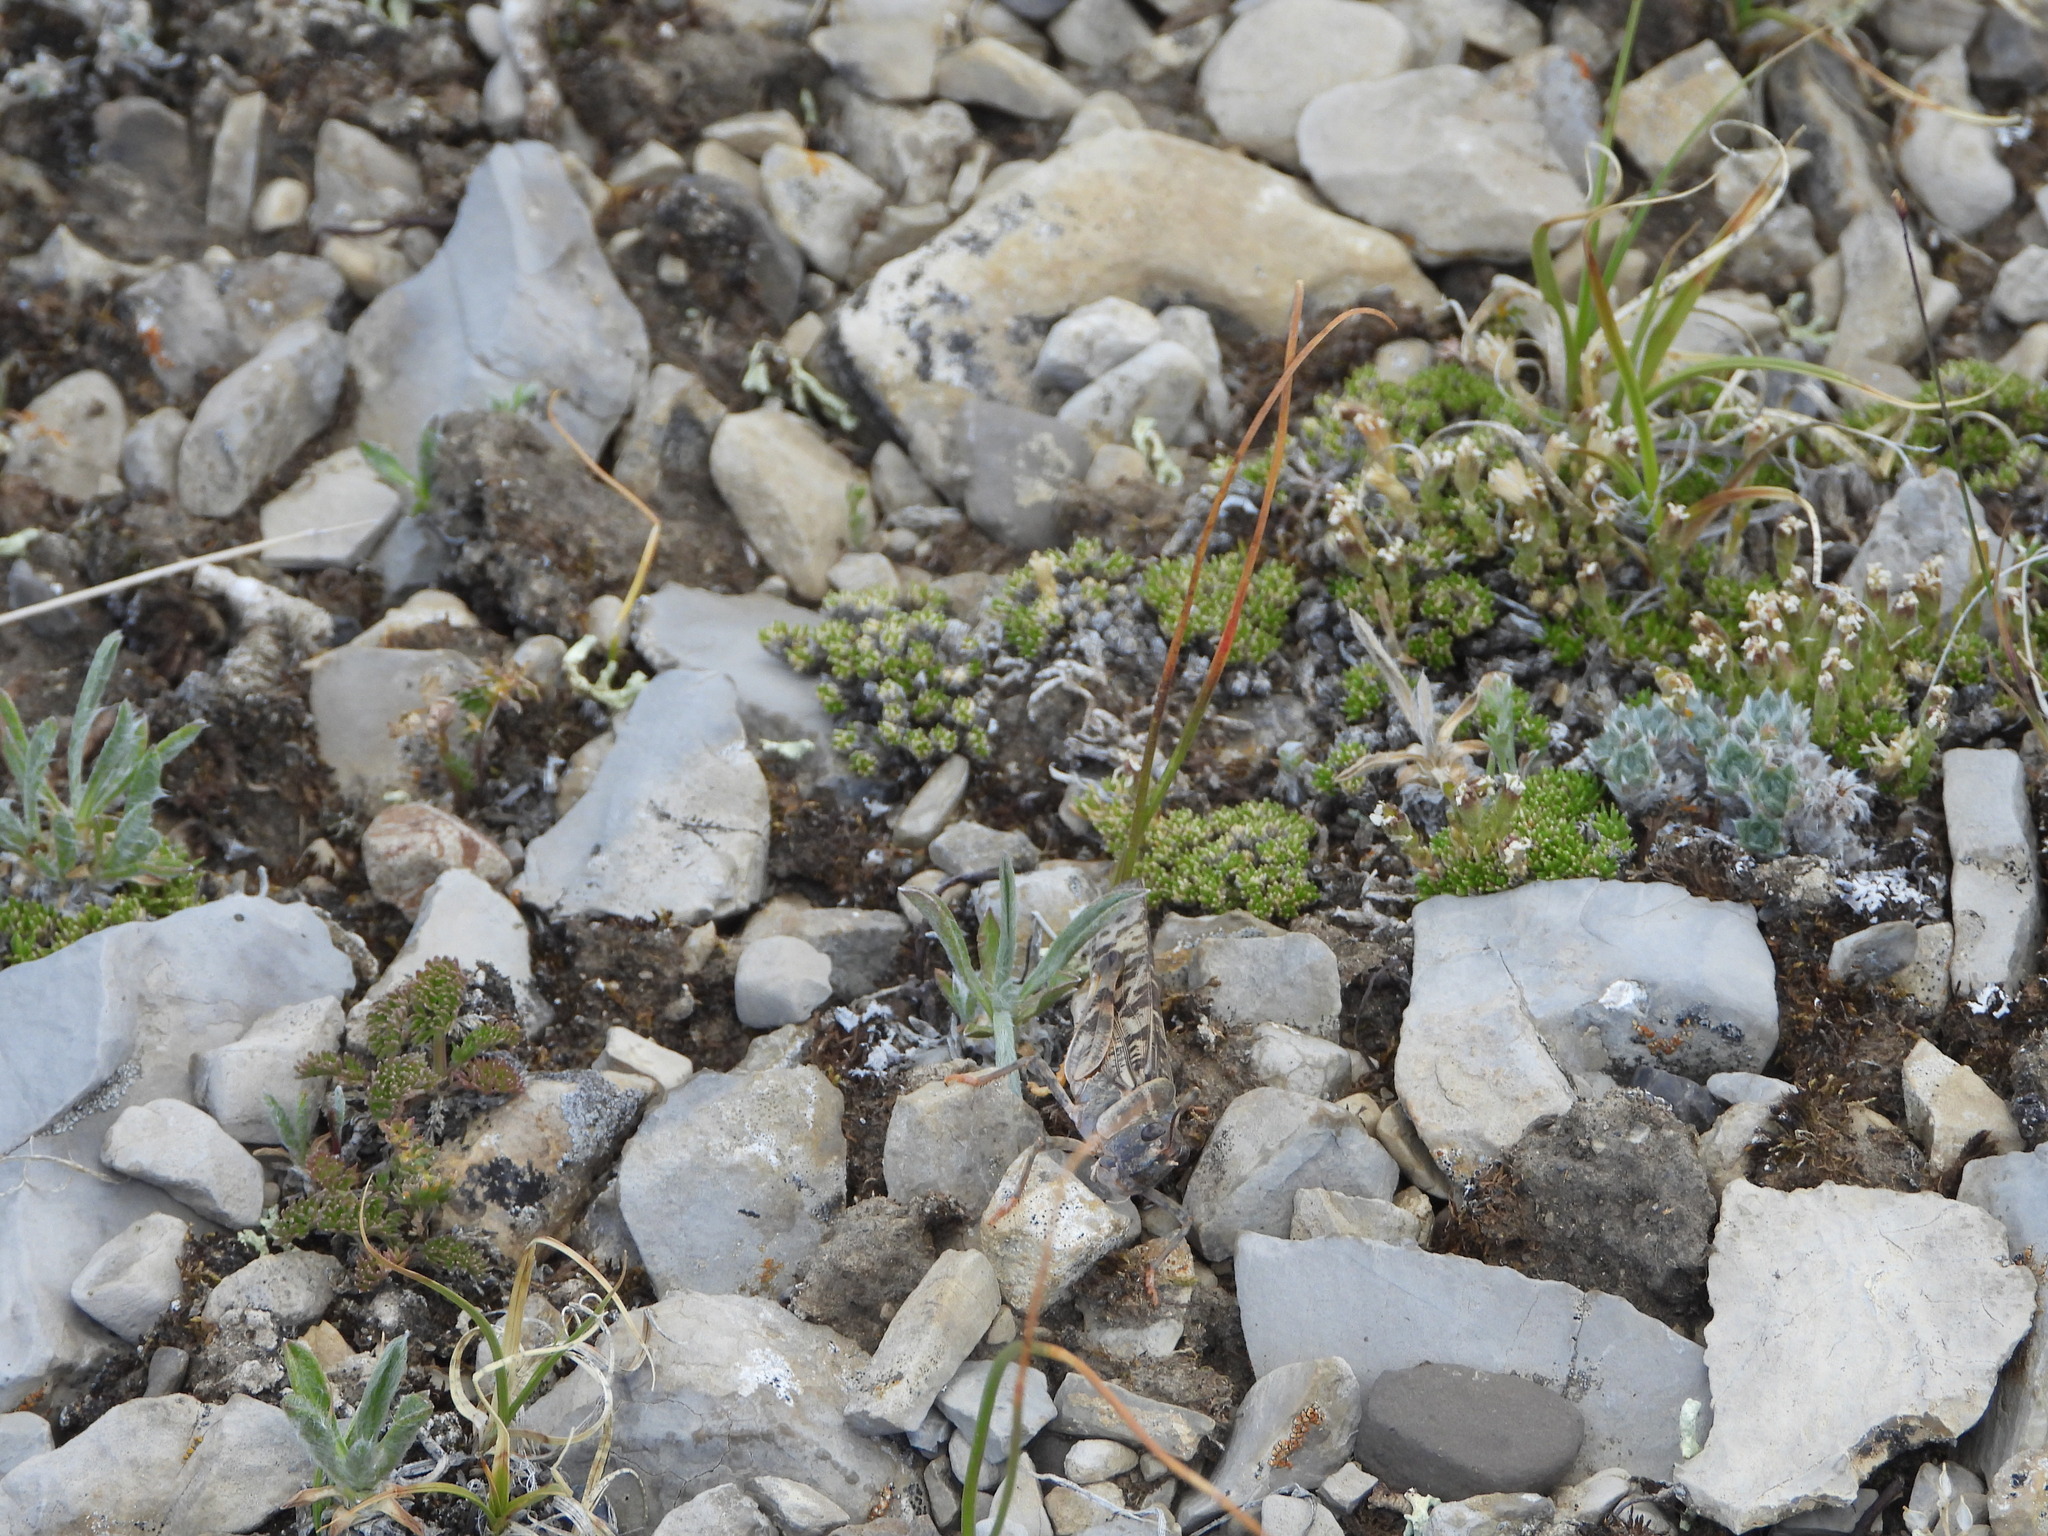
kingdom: Animalia
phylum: Arthropoda
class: Insecta
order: Orthoptera
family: Acrididae
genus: Dissosteira
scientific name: Dissosteira longipennis
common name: High plains grasshopper
